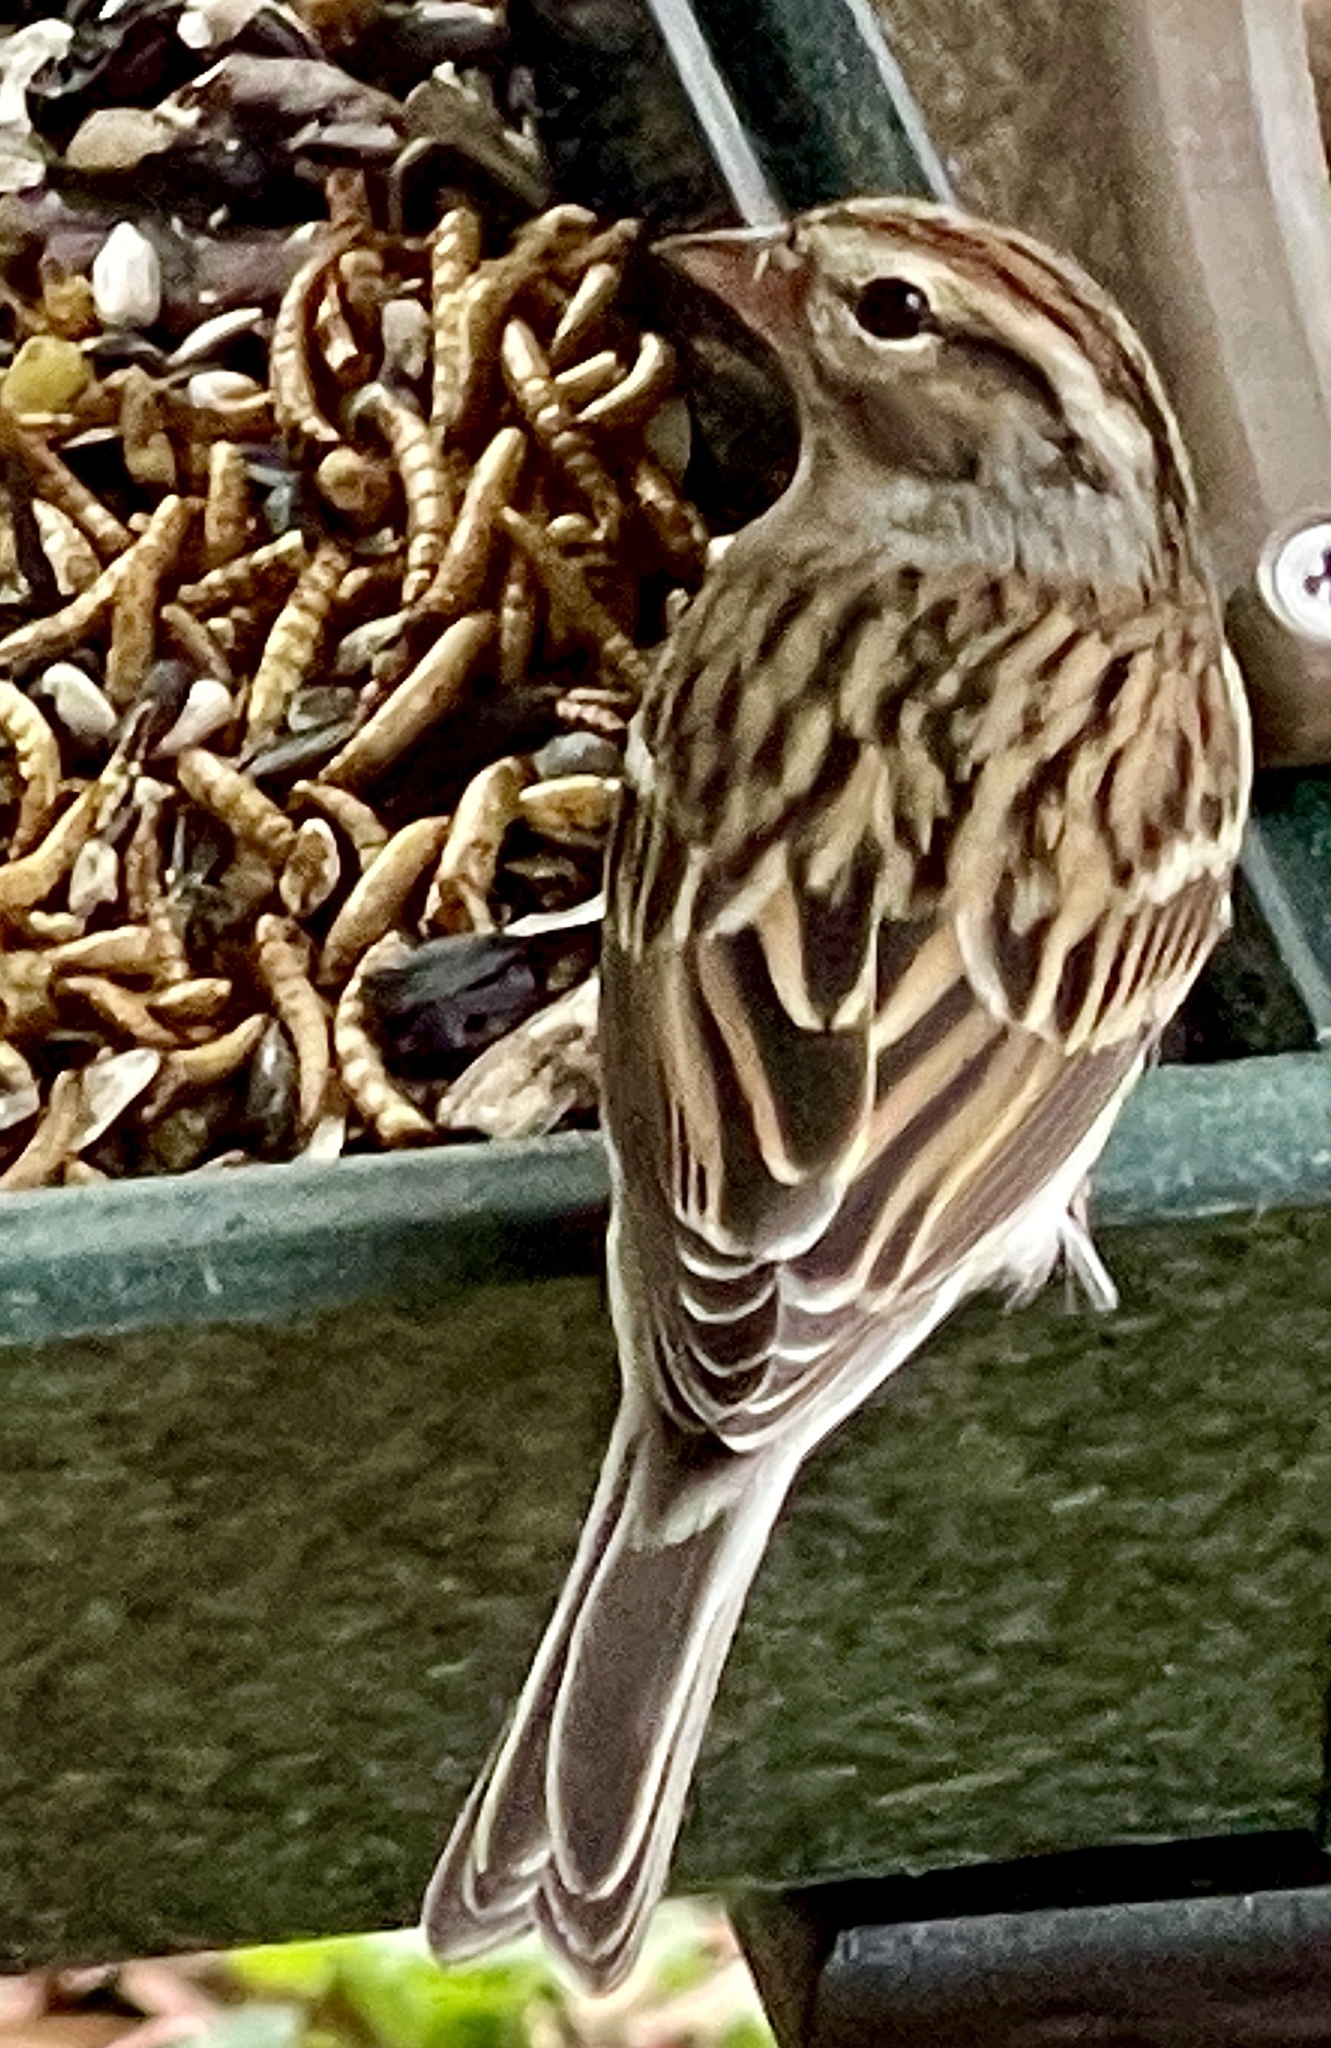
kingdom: Animalia
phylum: Chordata
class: Aves
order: Passeriformes
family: Passerellidae
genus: Spizella
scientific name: Spizella passerina
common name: Chipping sparrow
